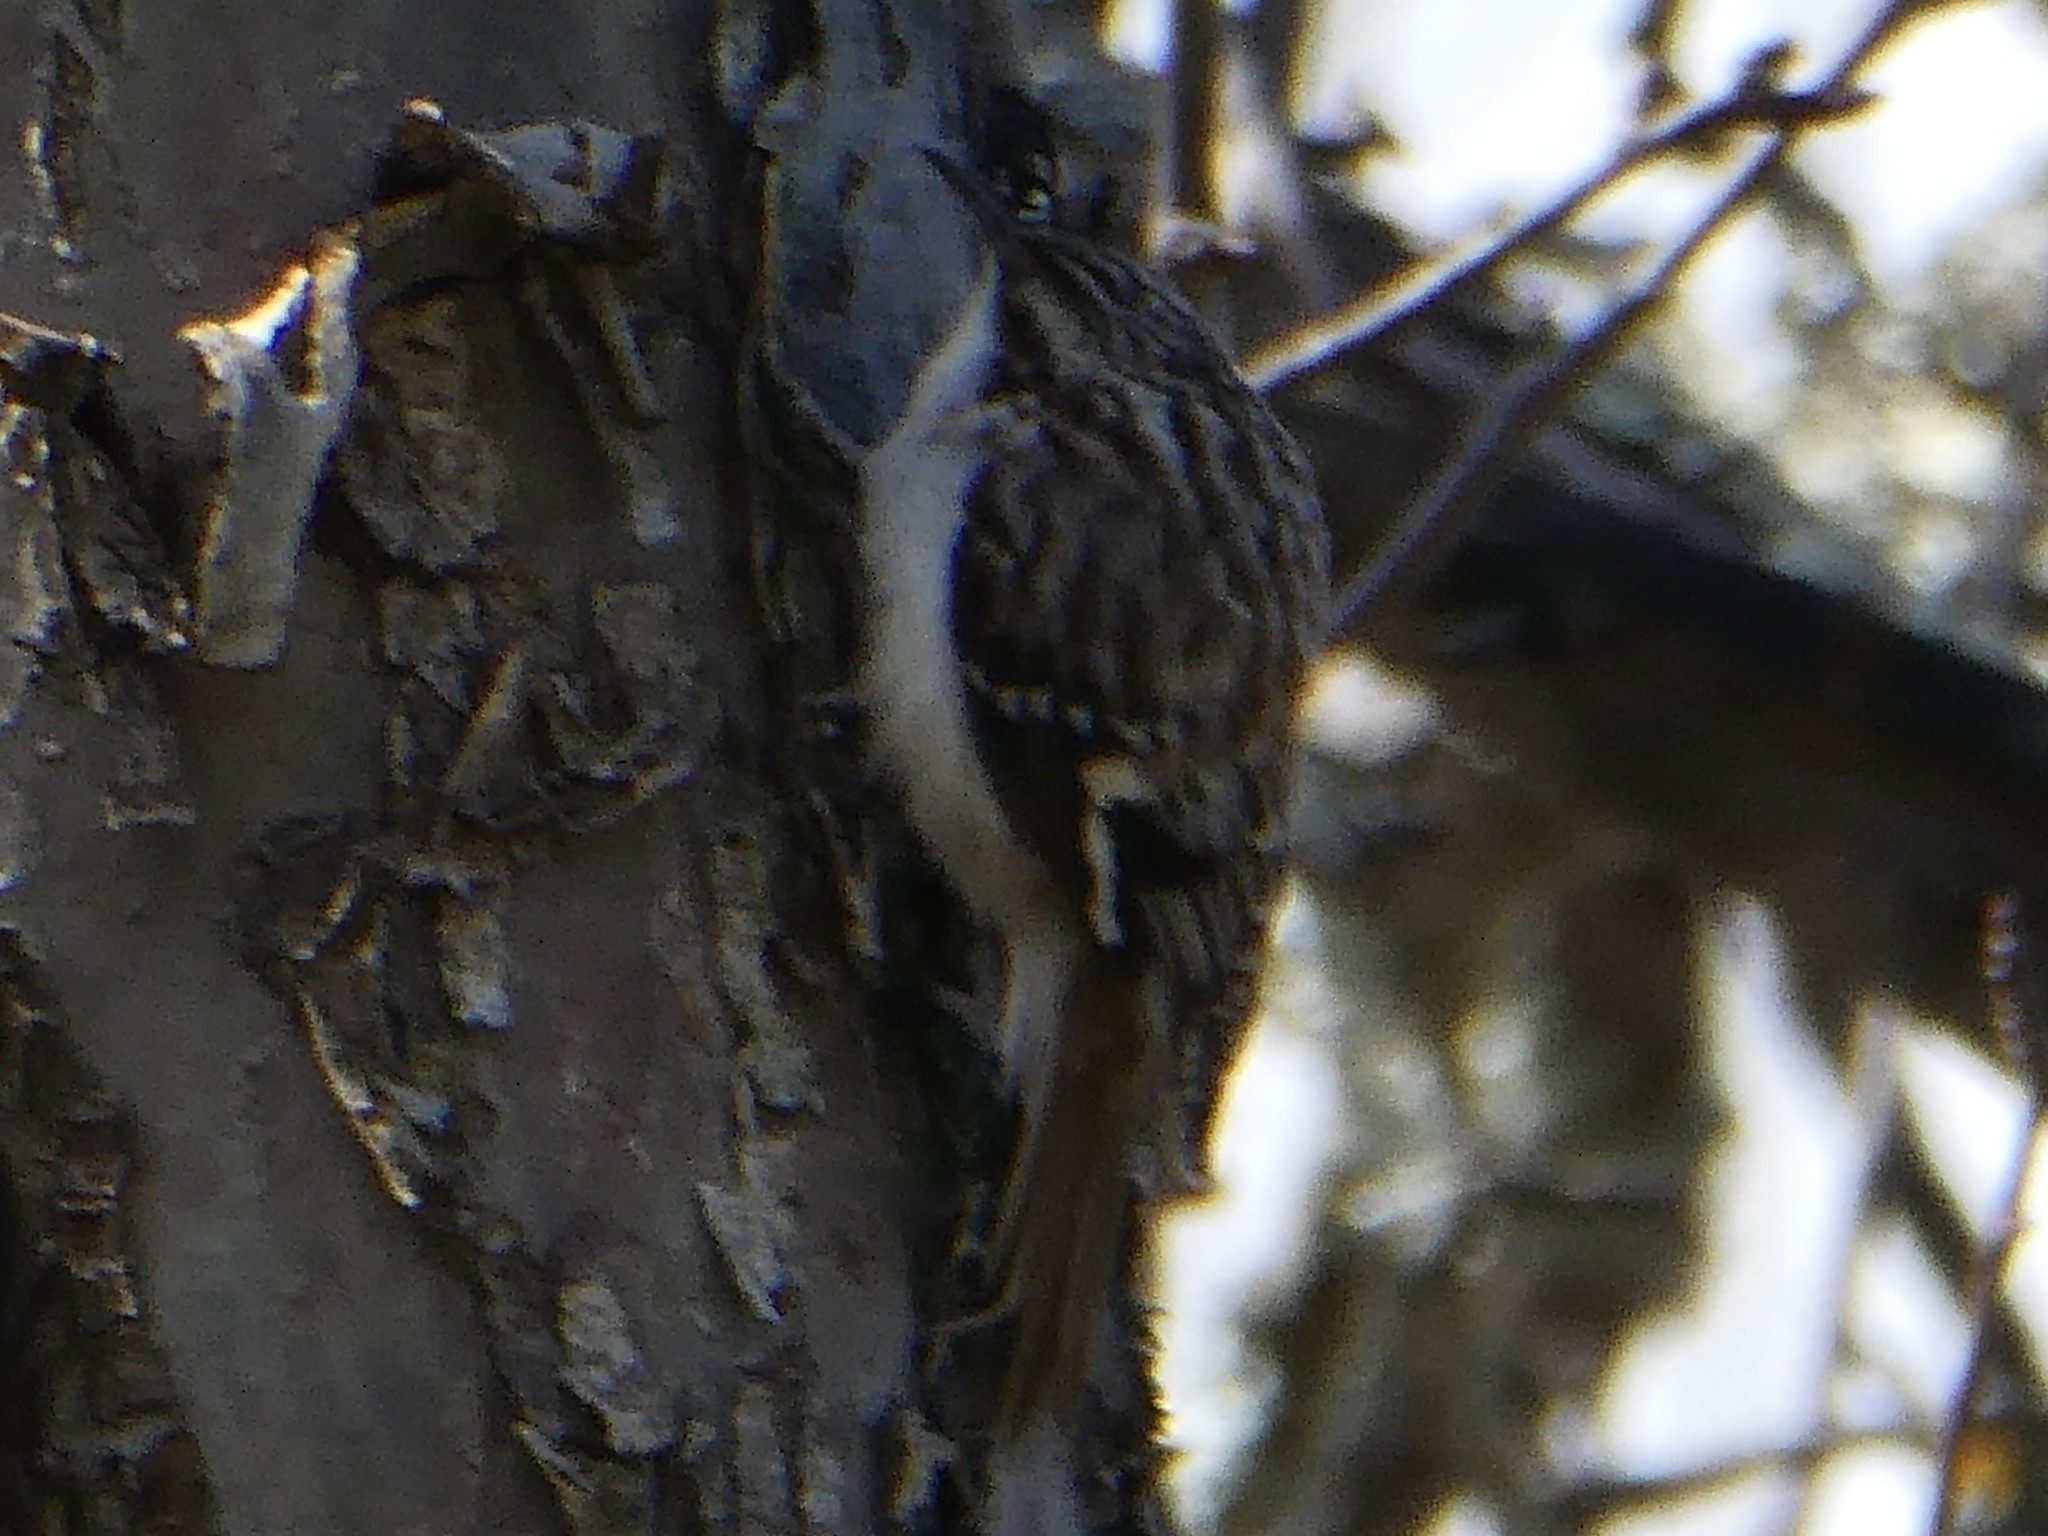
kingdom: Animalia
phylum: Chordata
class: Aves
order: Passeriformes
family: Certhiidae
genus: Certhia
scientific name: Certhia americana
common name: Brown creeper
